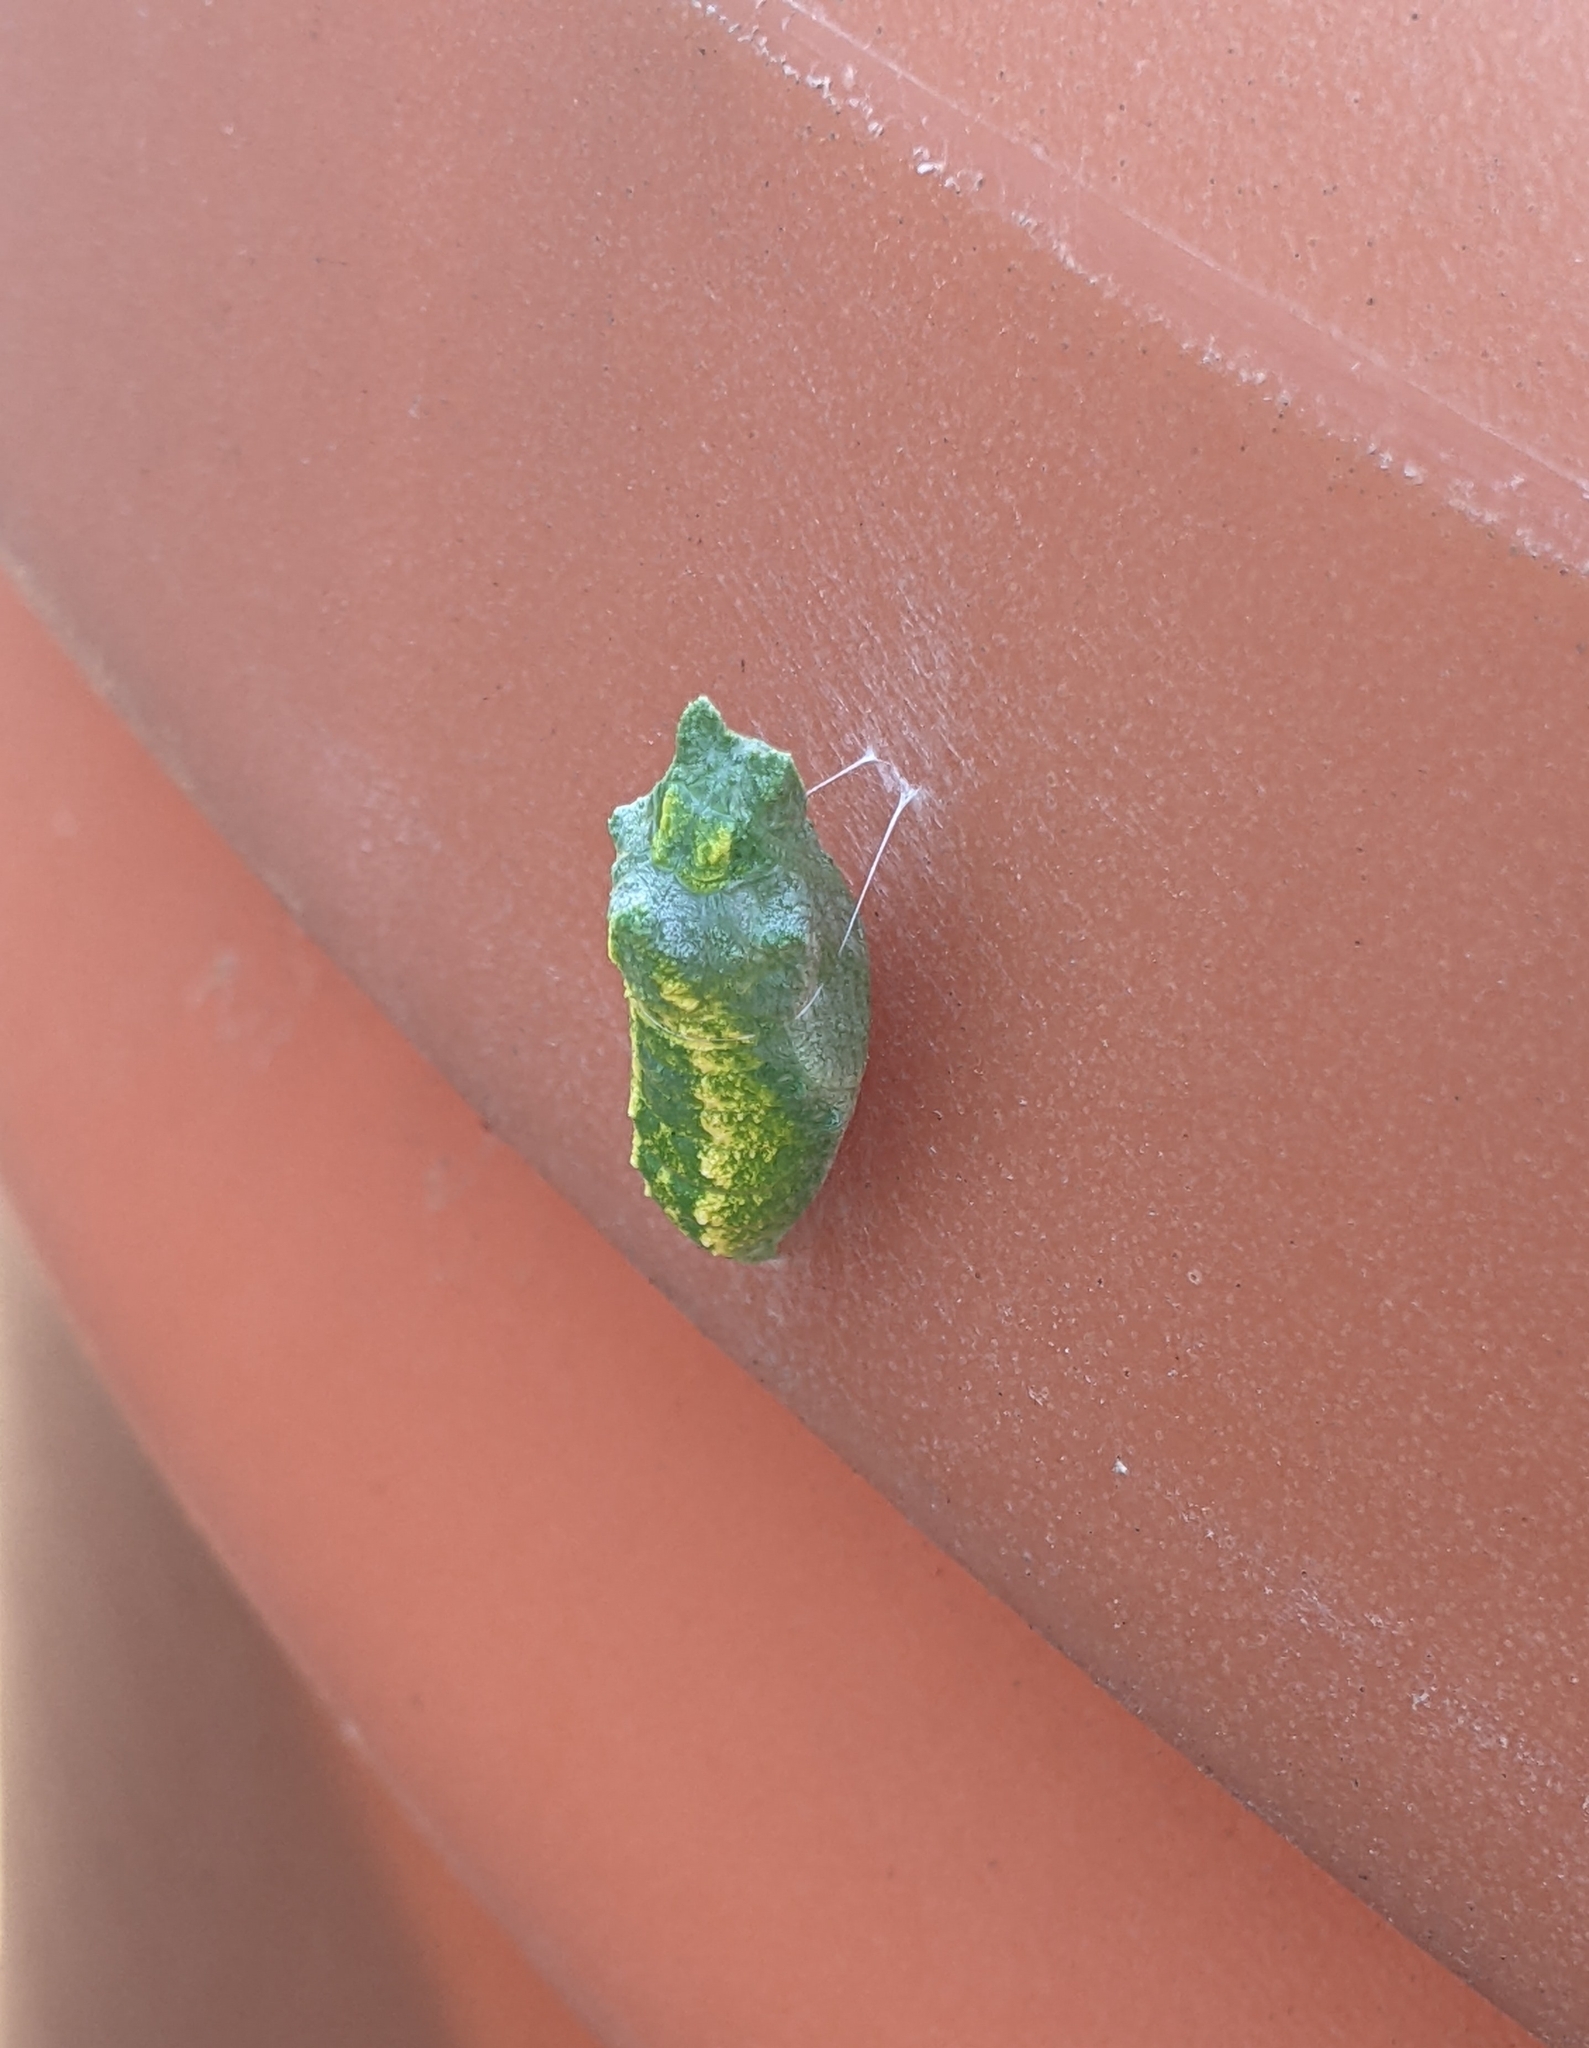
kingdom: Animalia
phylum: Arthropoda
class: Insecta
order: Lepidoptera
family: Papilionidae
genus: Papilio
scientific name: Papilio polyxenes
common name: Black swallowtail
